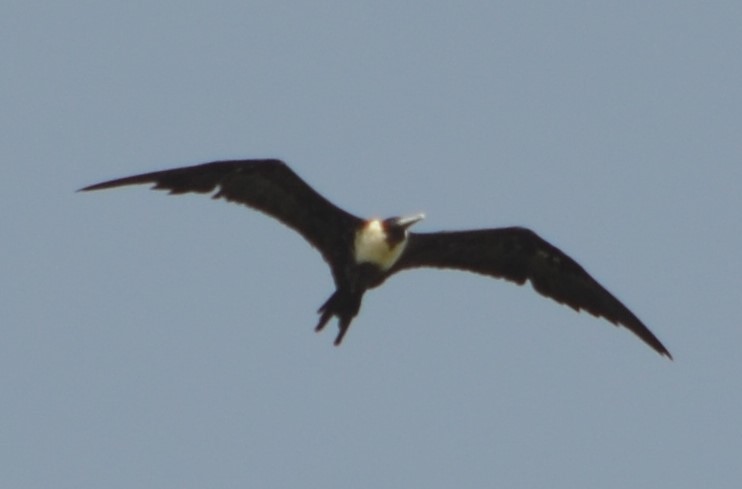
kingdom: Animalia
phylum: Chordata
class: Aves
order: Suliformes
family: Fregatidae
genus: Fregata
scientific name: Fregata magnificens
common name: Magnificent frigatebird
